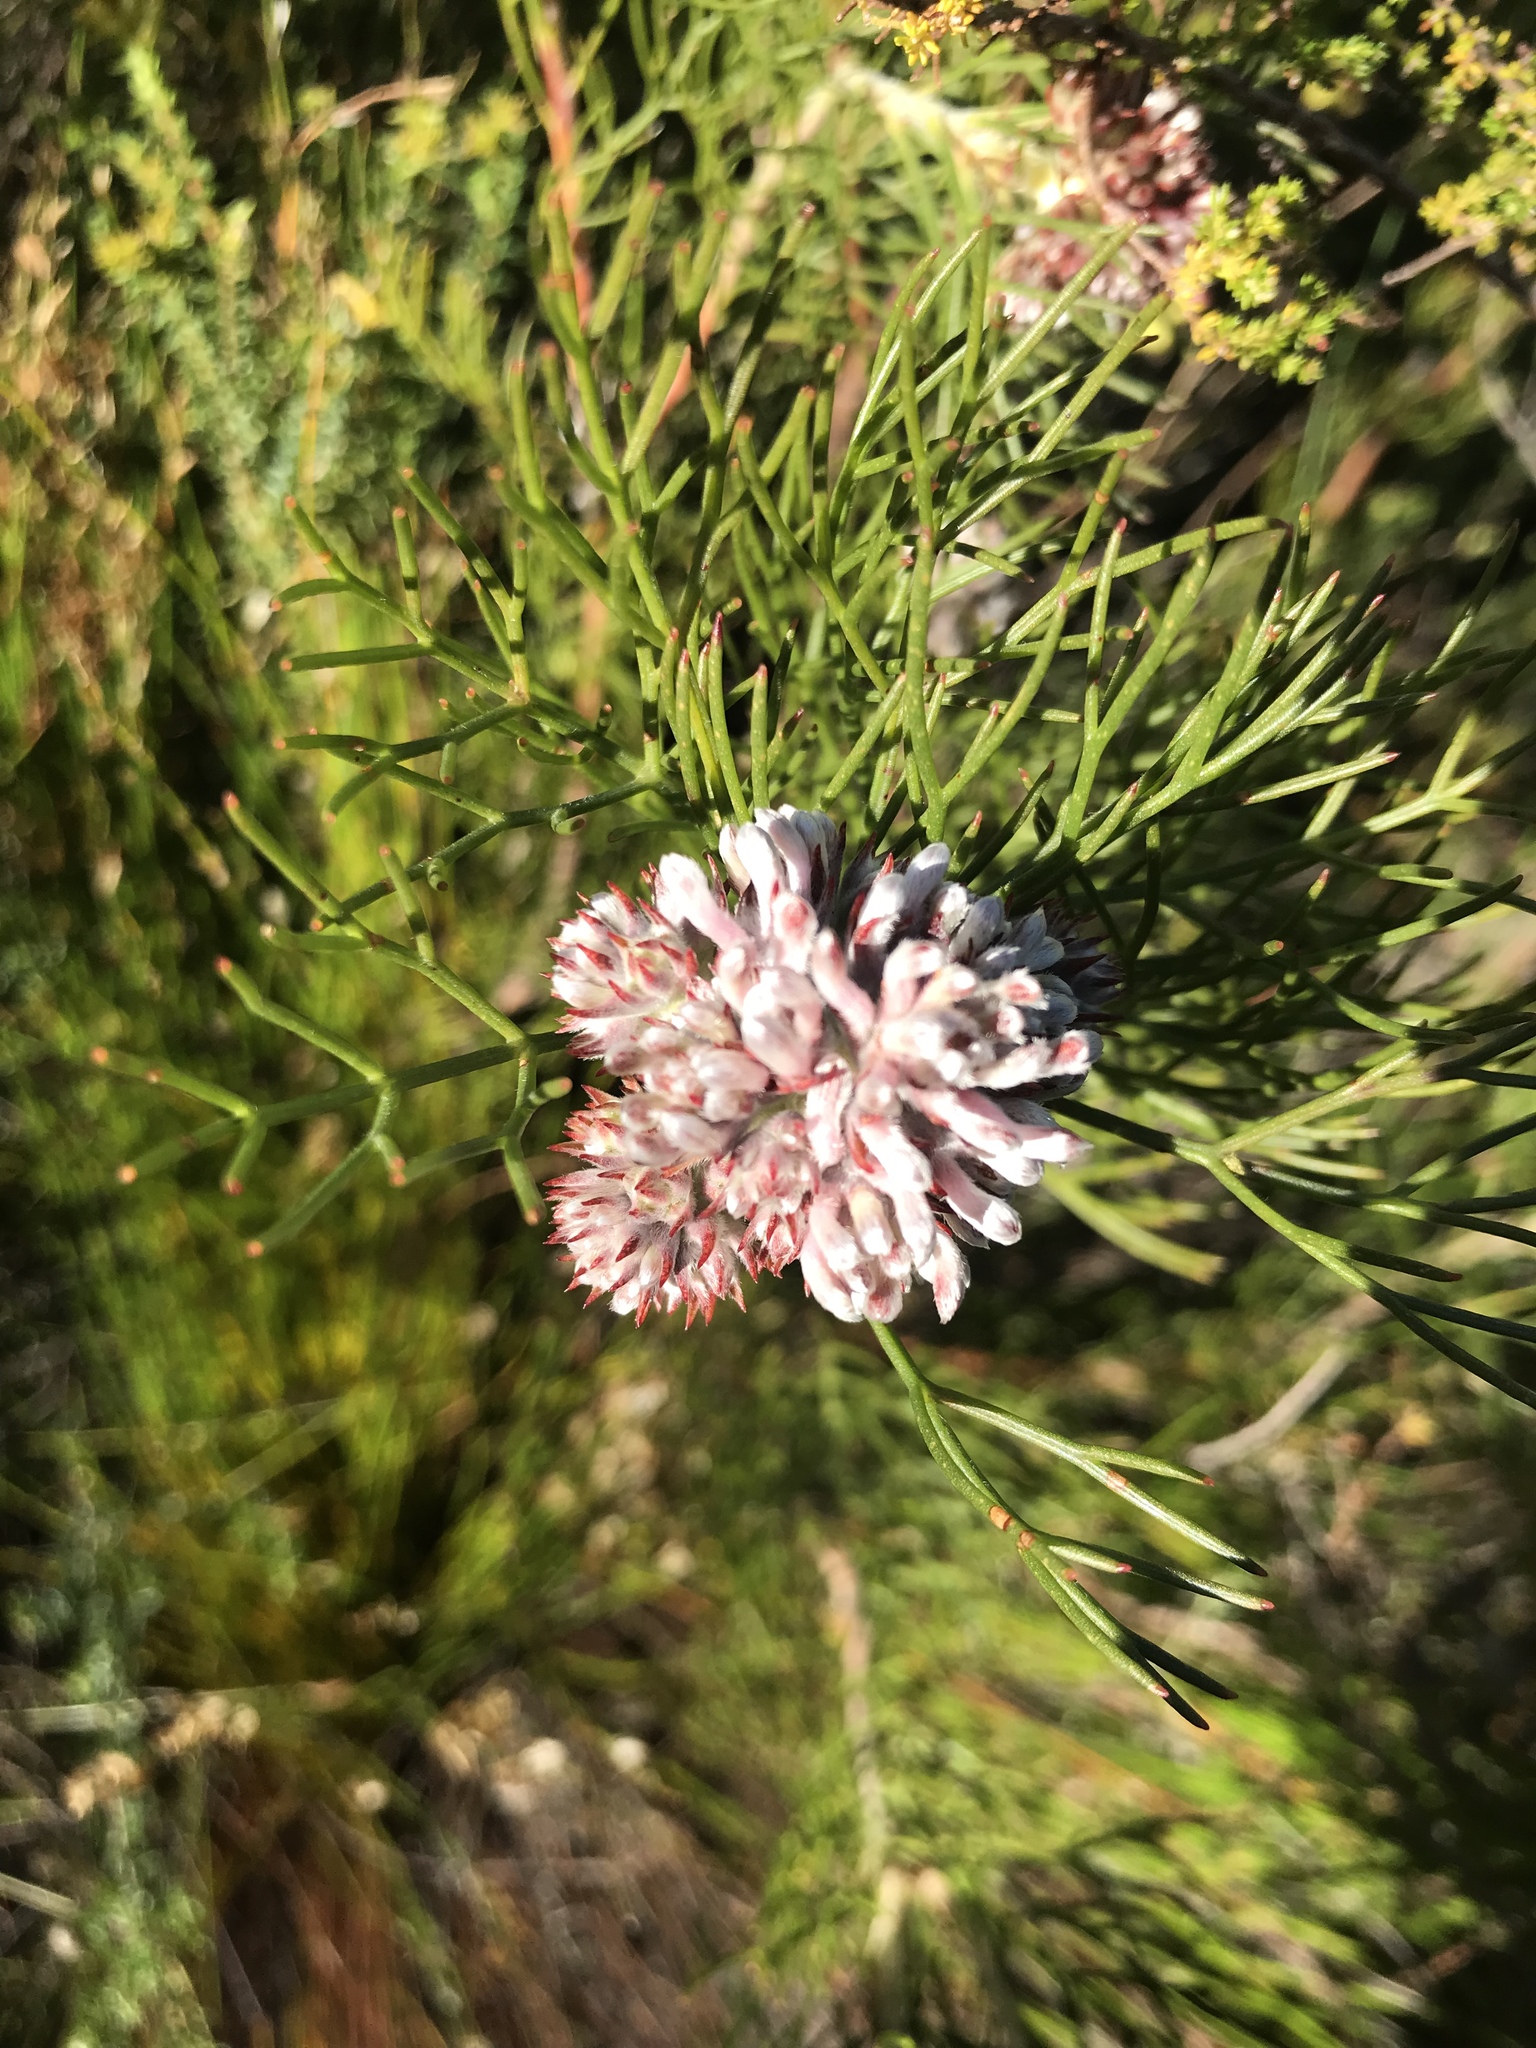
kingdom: Plantae
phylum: Tracheophyta
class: Magnoliopsida
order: Proteales
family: Proteaceae
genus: Serruria
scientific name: Serruria ascendens
